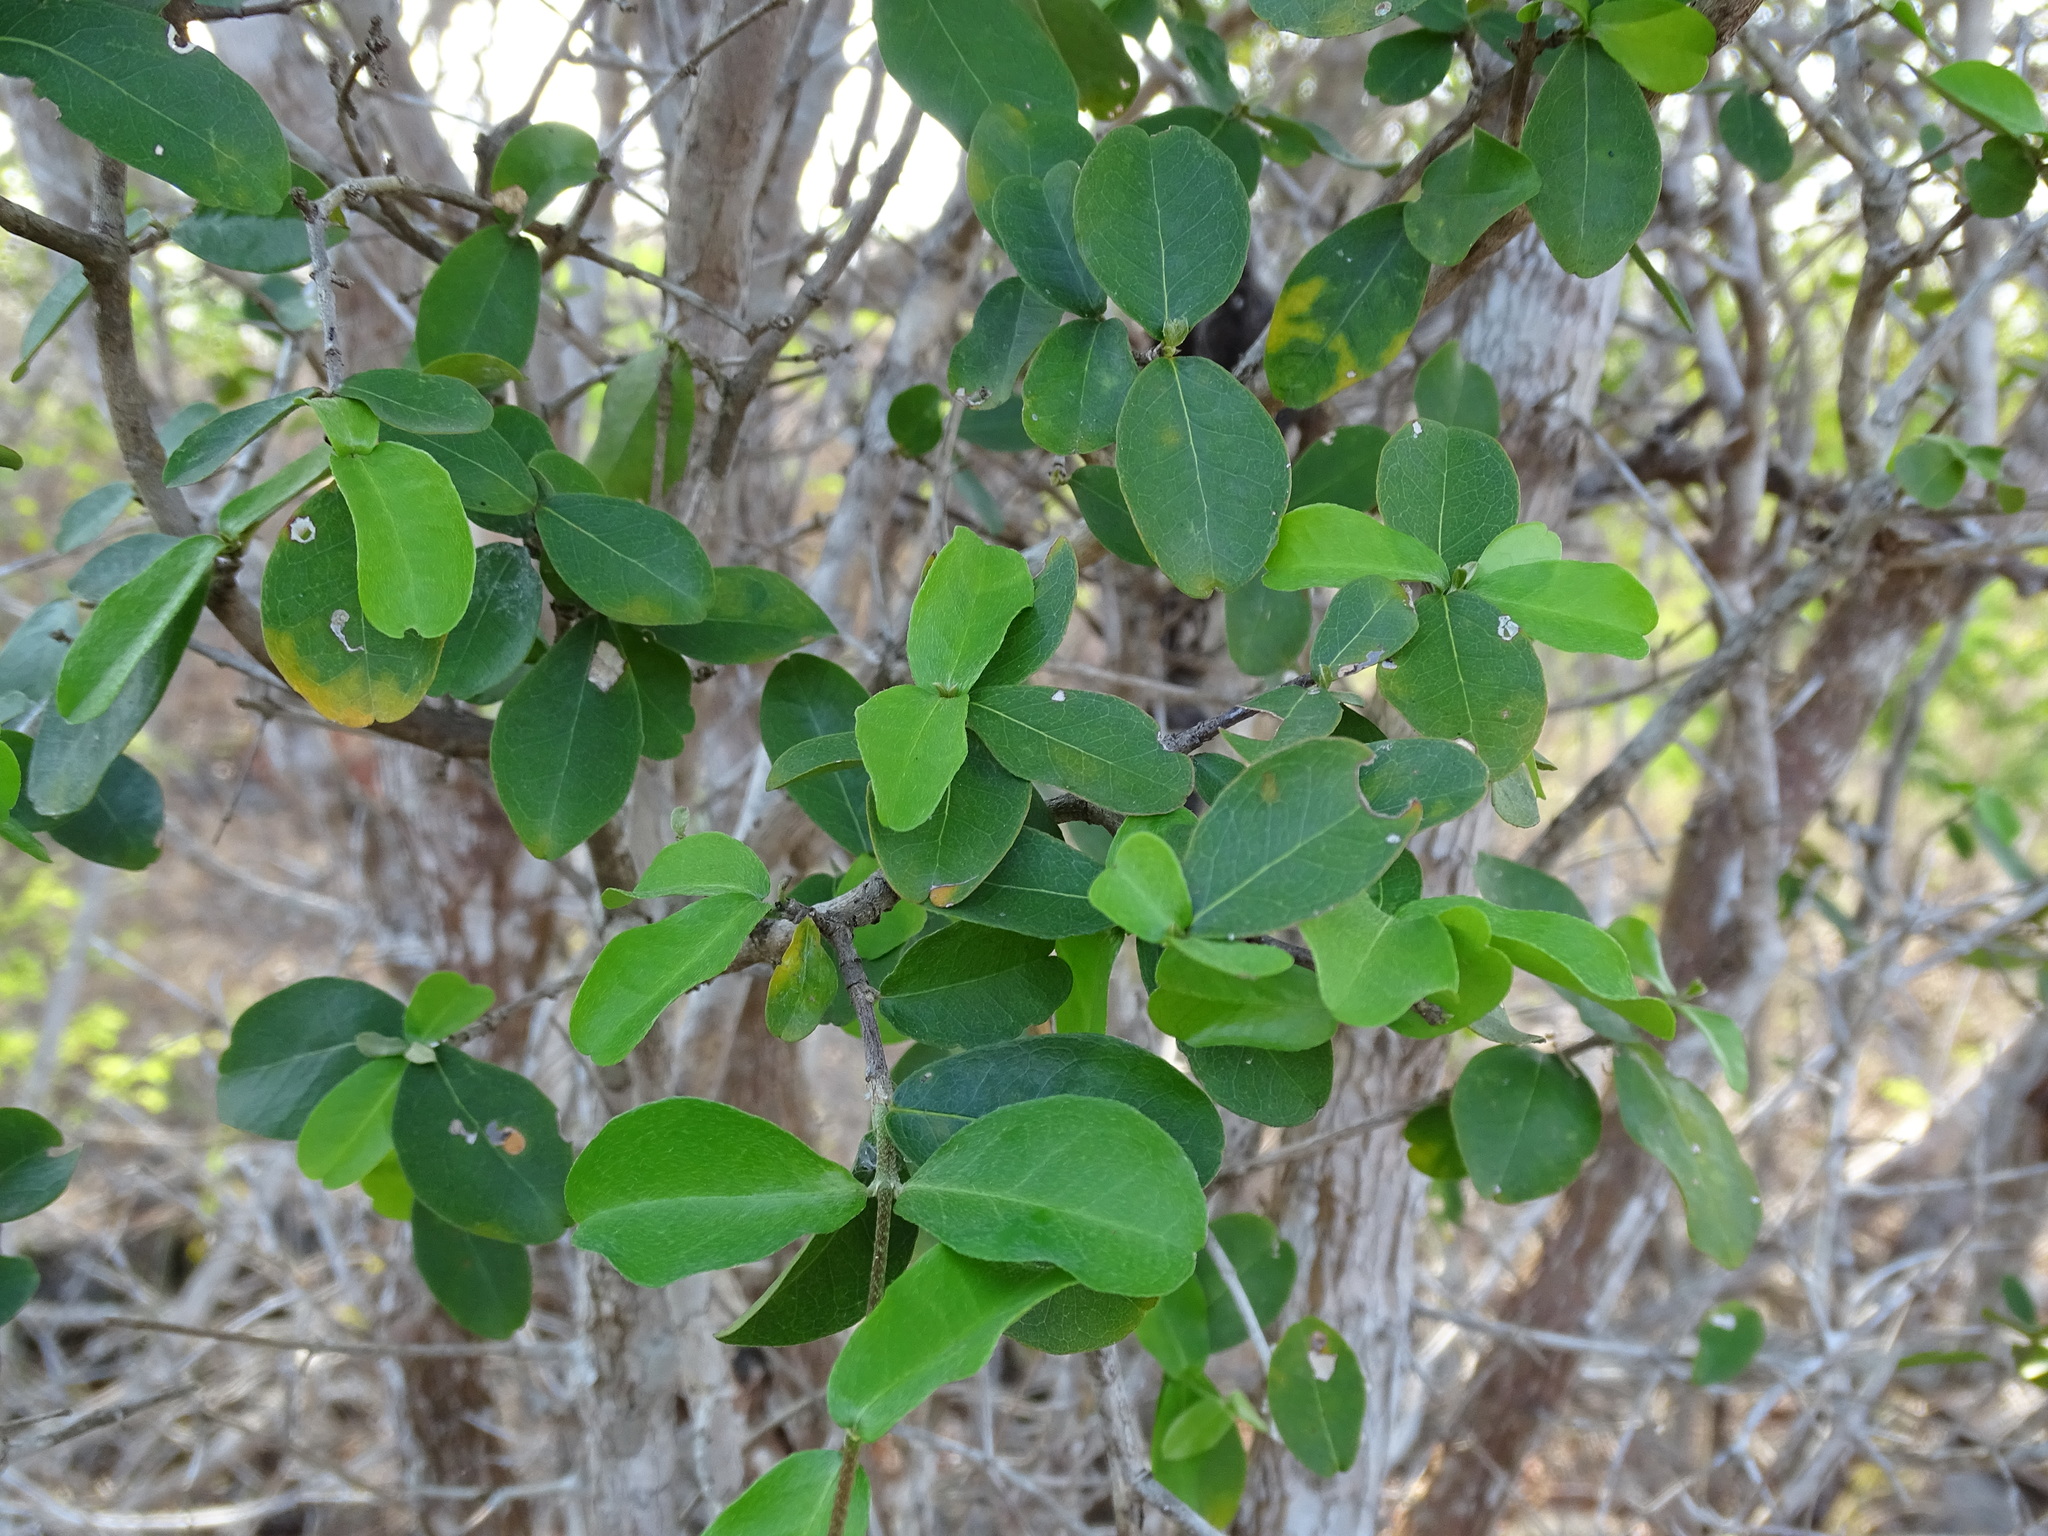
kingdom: Plantae
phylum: Tracheophyta
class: Magnoliopsida
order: Malpighiales
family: Malpighiaceae
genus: Malpighia
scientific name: Malpighia lundellii
